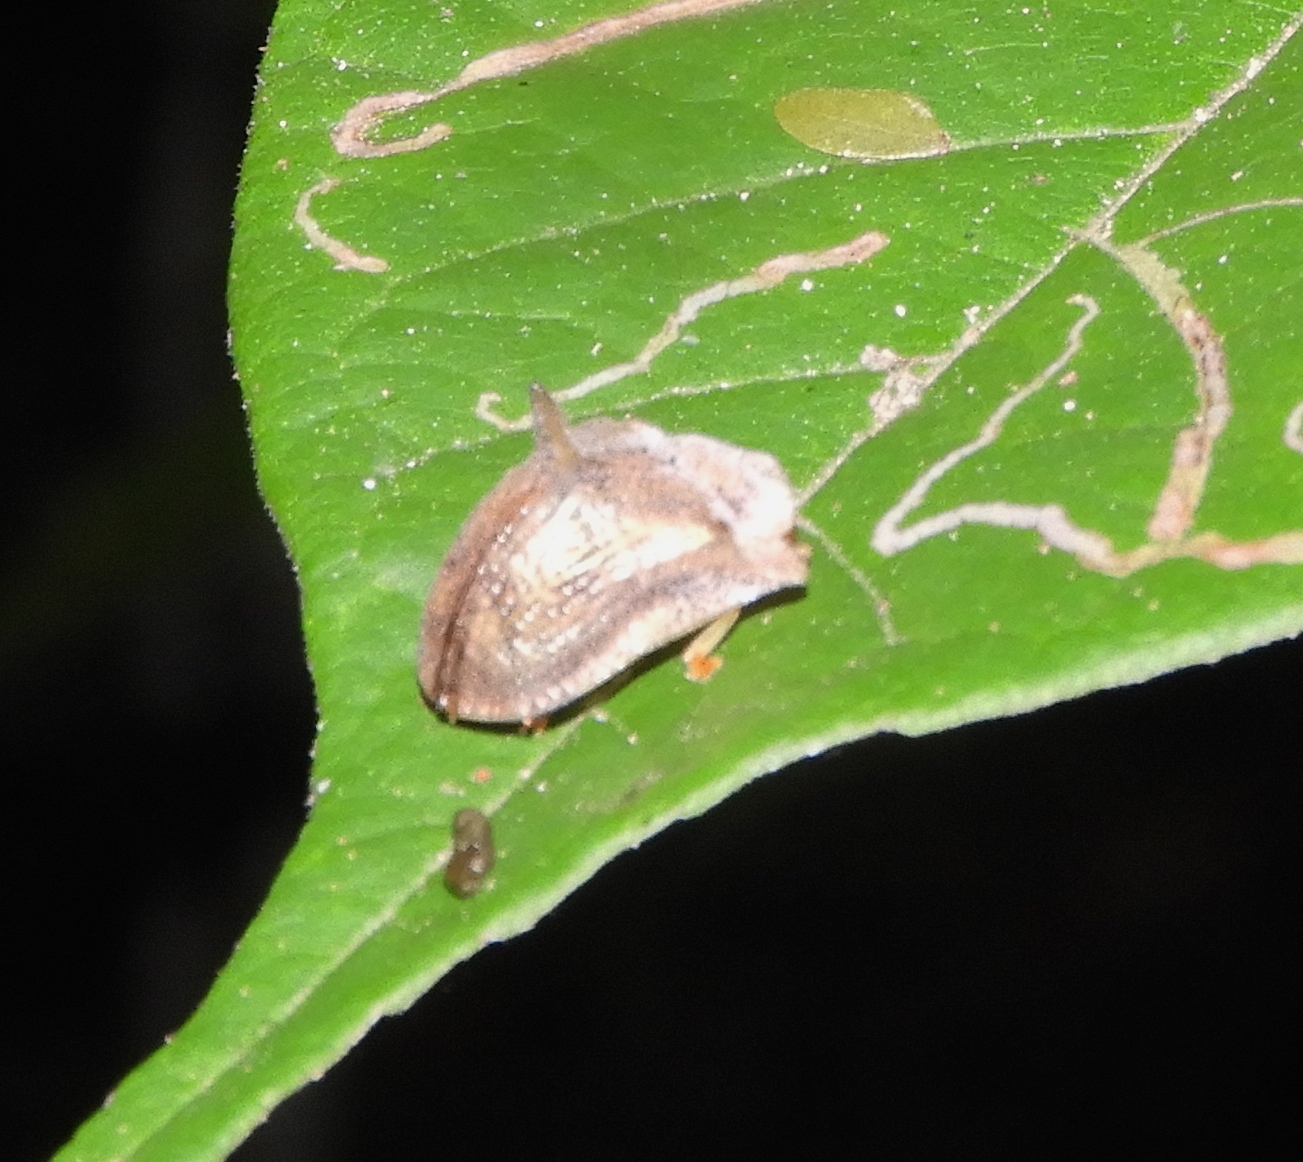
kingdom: Animalia
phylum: Arthropoda
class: Insecta
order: Coleoptera
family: Chrysomelidae
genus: Dorynota
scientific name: Dorynota aurita
